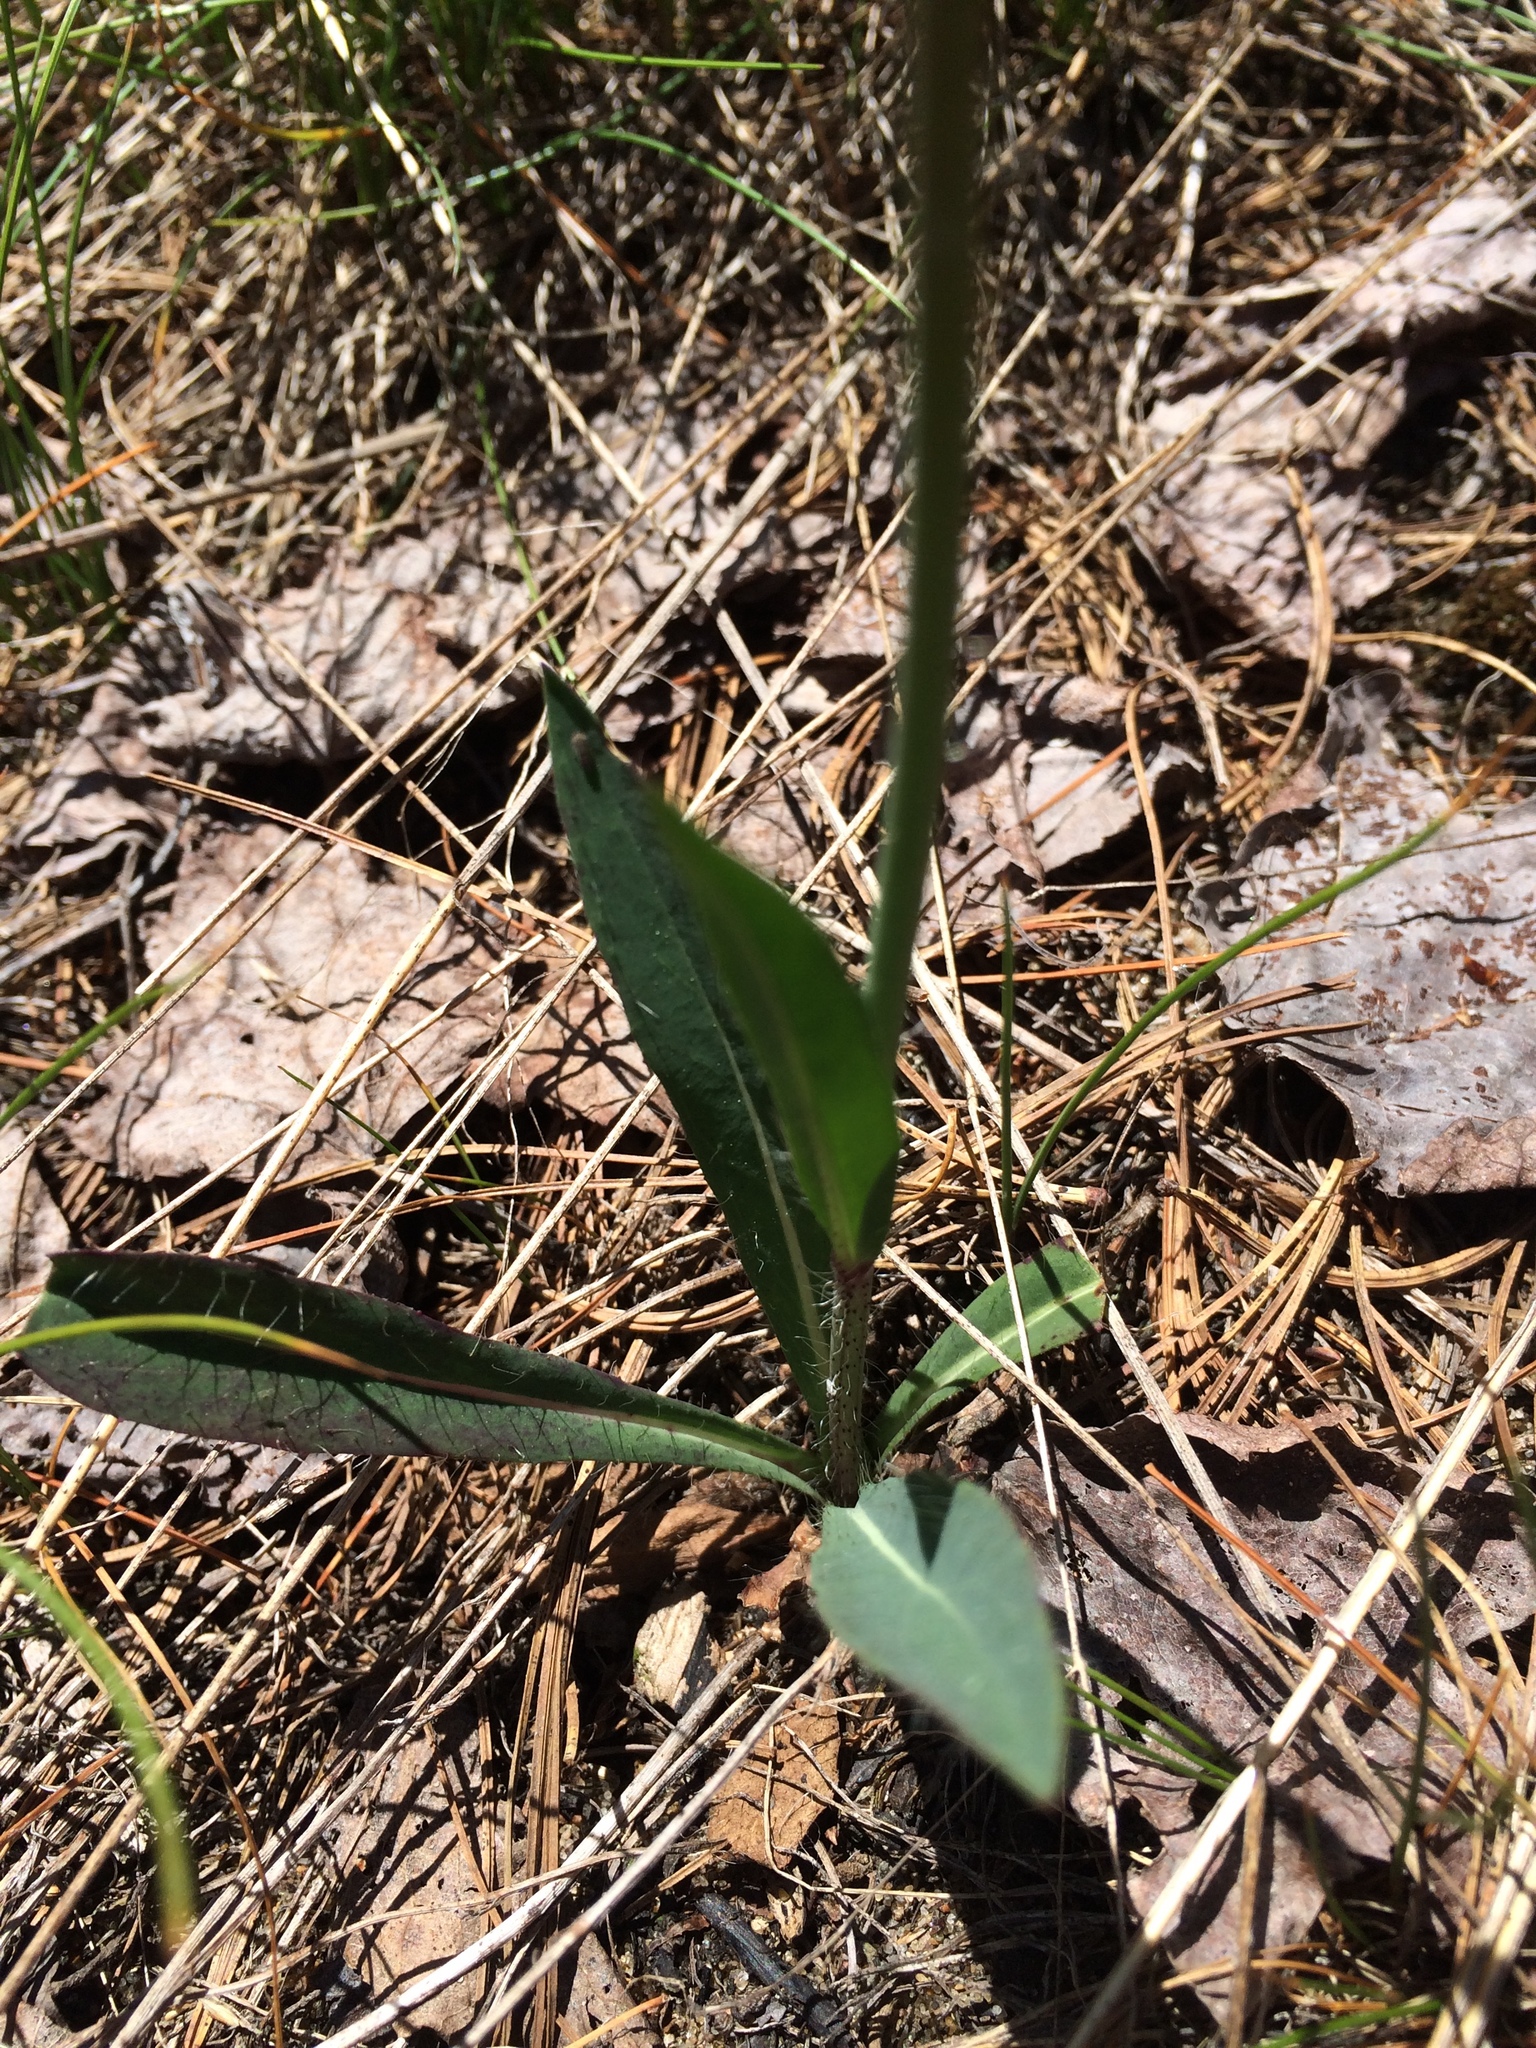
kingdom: Plantae
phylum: Tracheophyta
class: Magnoliopsida
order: Asterales
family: Asteraceae
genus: Pilosella
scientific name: Pilosella piloselloides
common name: Glaucous king-devil
